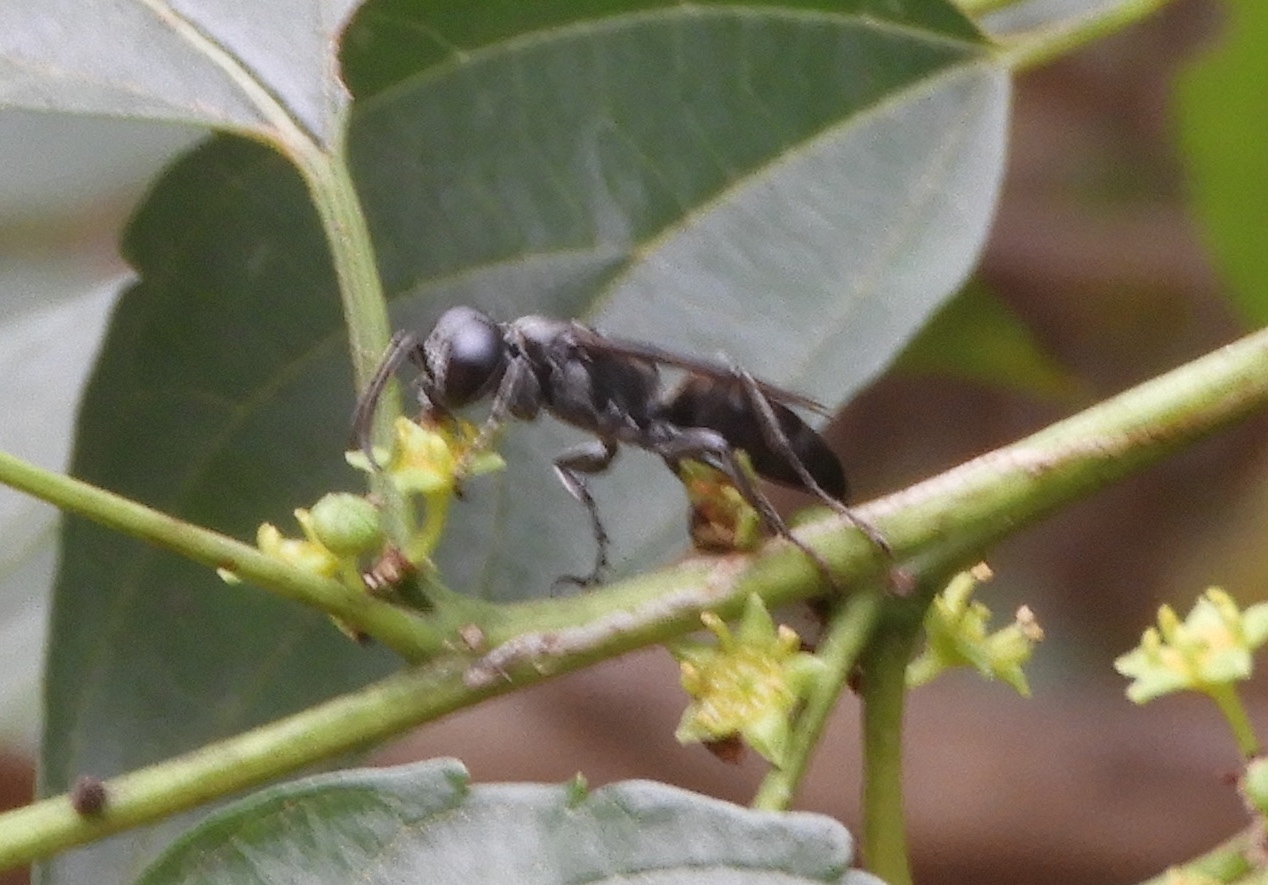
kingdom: Animalia
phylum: Arthropoda
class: Insecta
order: Hymenoptera
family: Crabronidae
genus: Liris
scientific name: Liris
